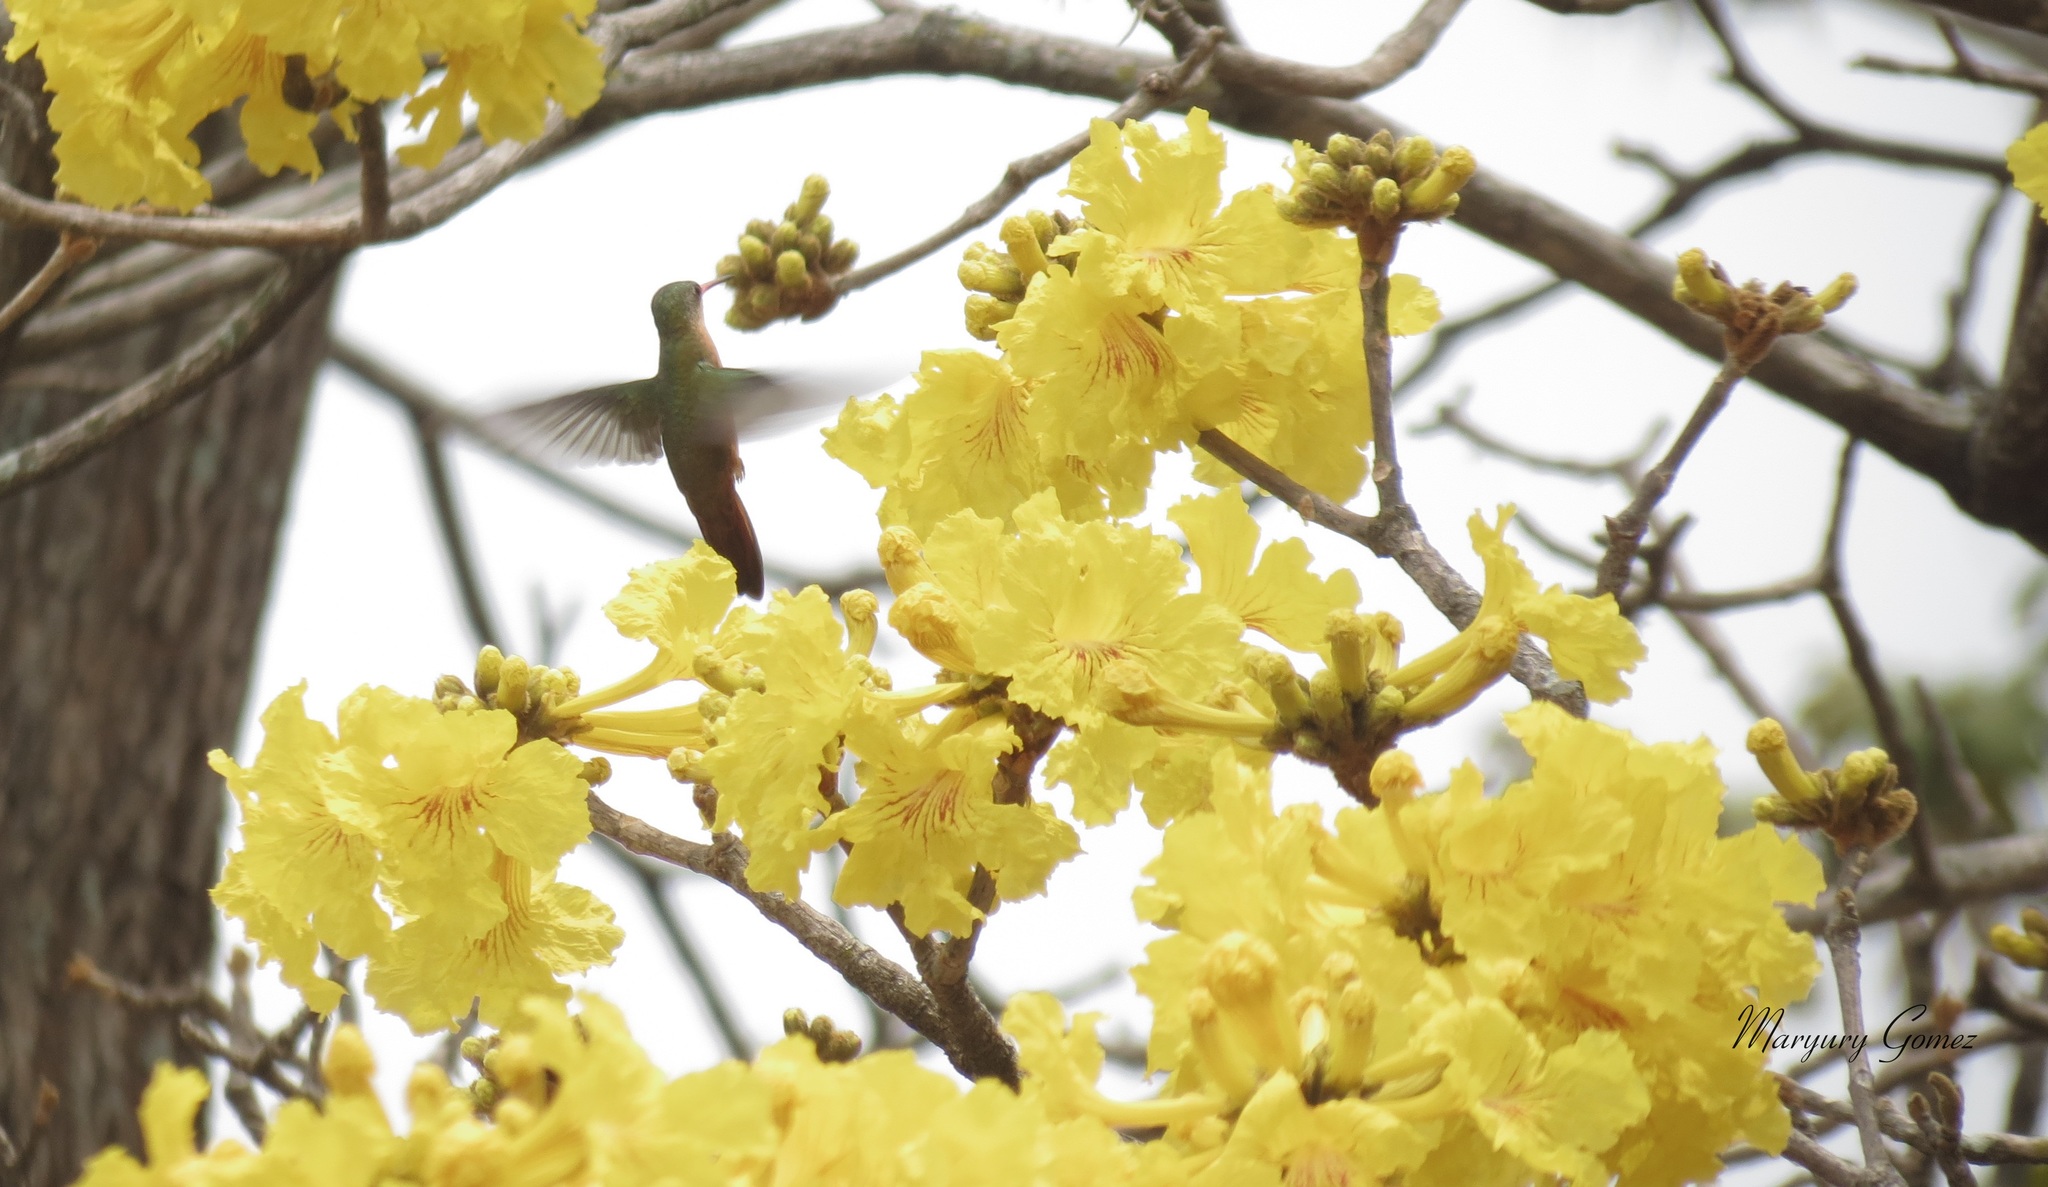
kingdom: Animalia
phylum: Chordata
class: Aves
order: Apodiformes
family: Trochilidae
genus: Amazilia
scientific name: Amazilia rutila
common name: Cinnamon hummingbird
